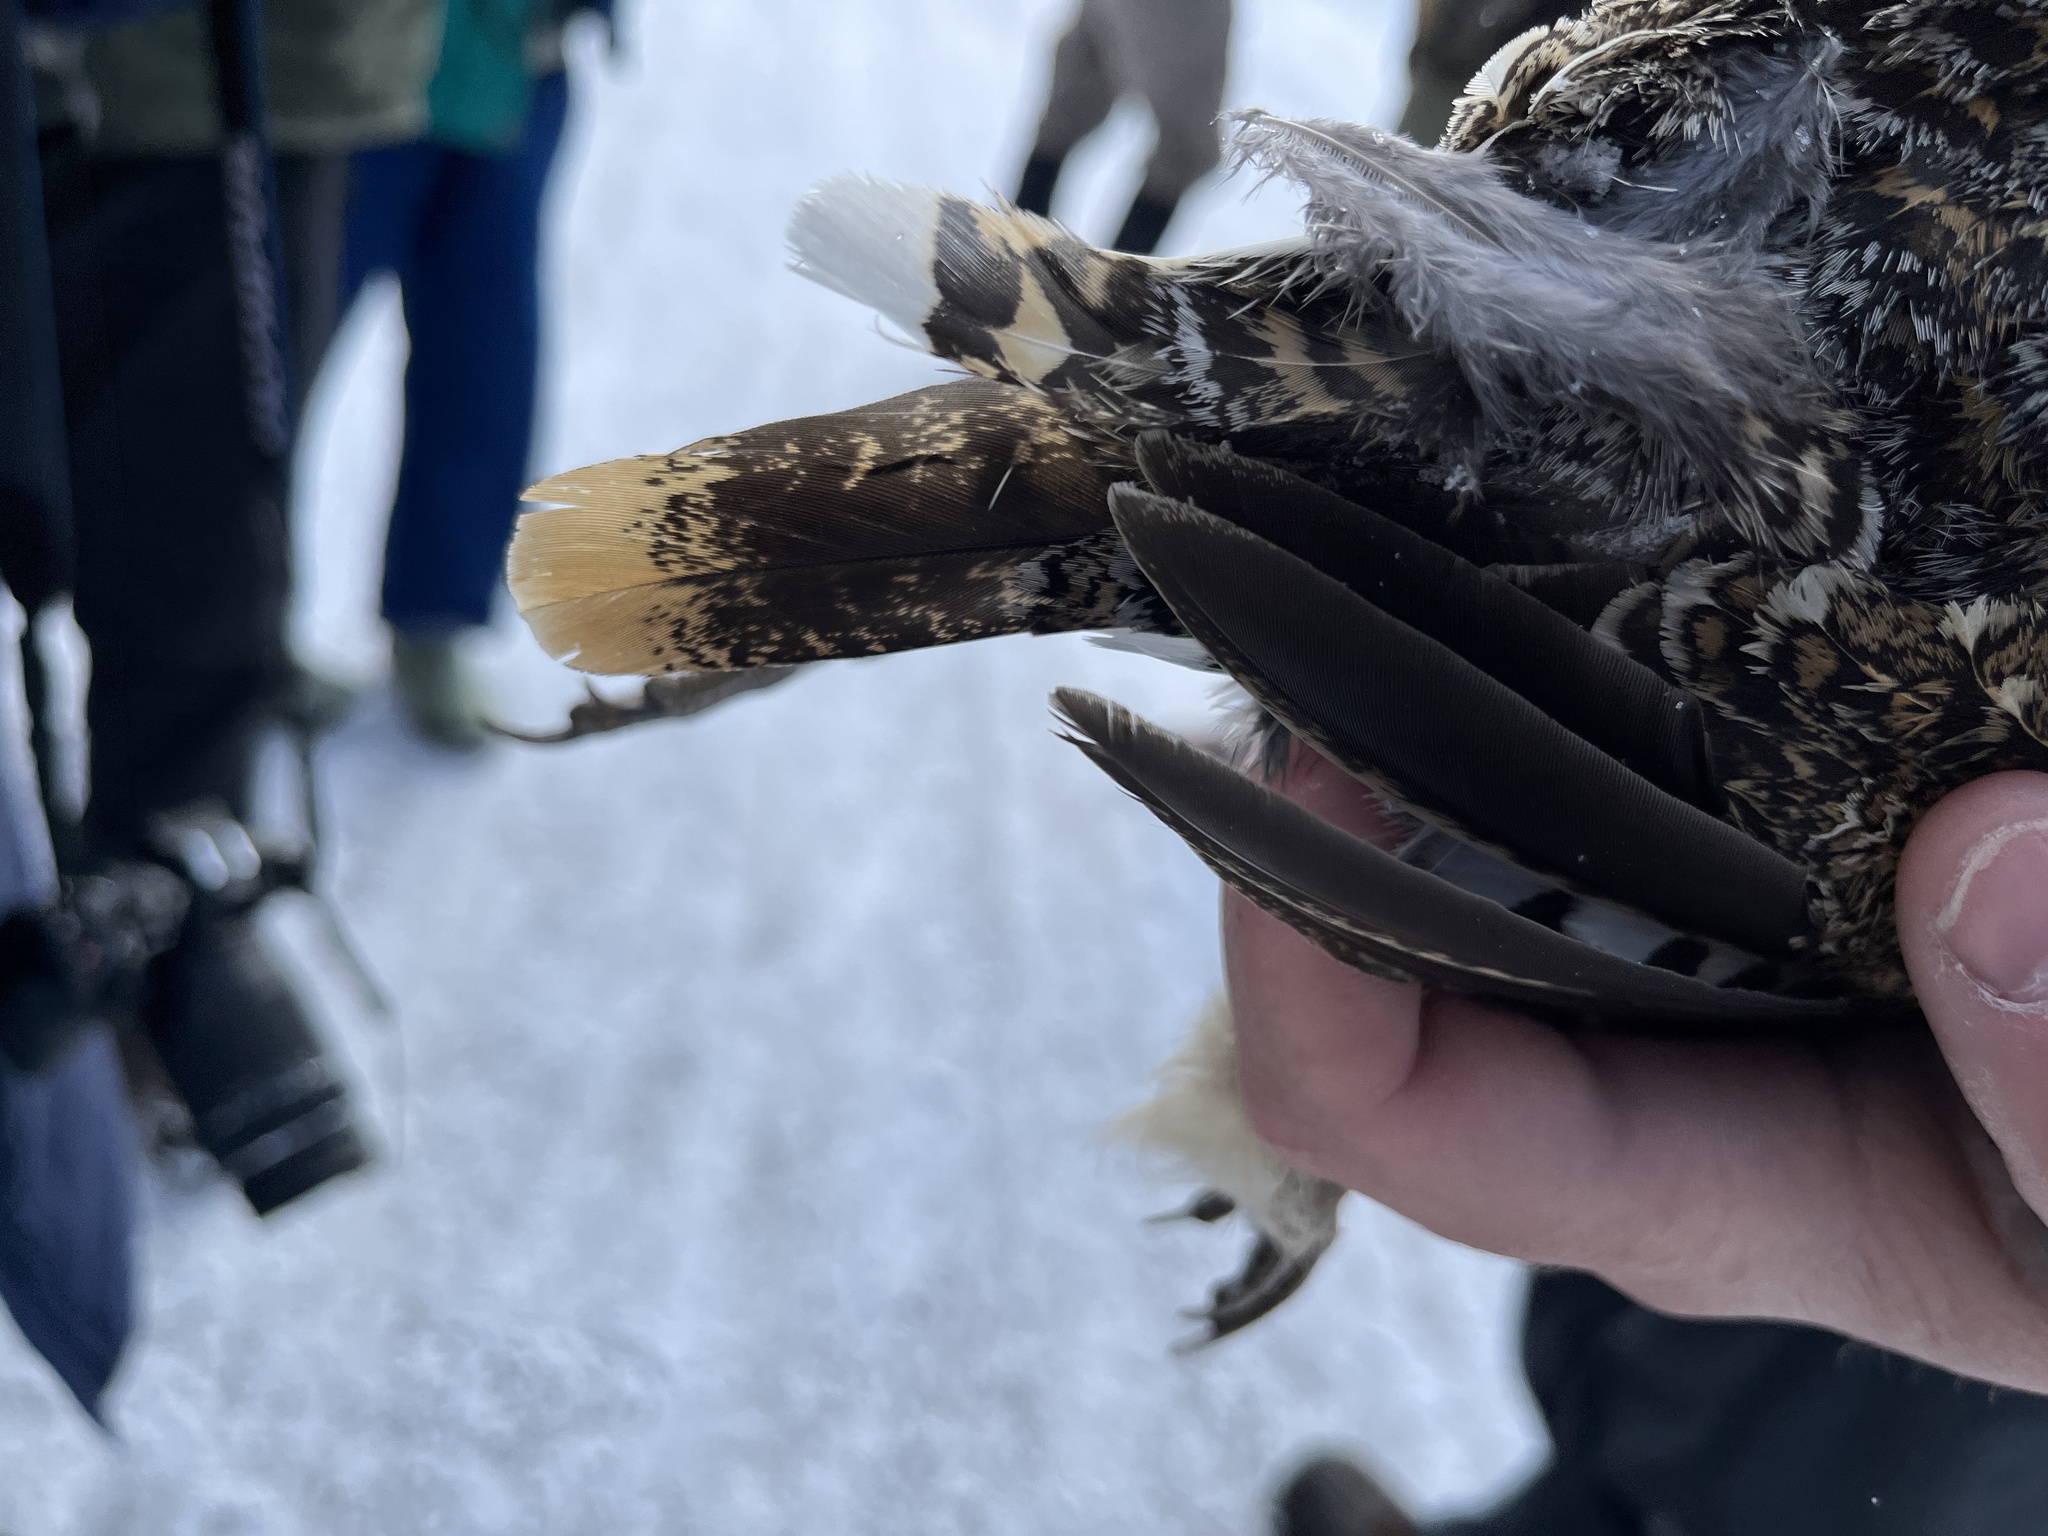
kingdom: Animalia
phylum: Chordata
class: Aves
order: Galliformes
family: Phasianidae
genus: Canachites
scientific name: Canachites canadensis
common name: Spruce grouse
